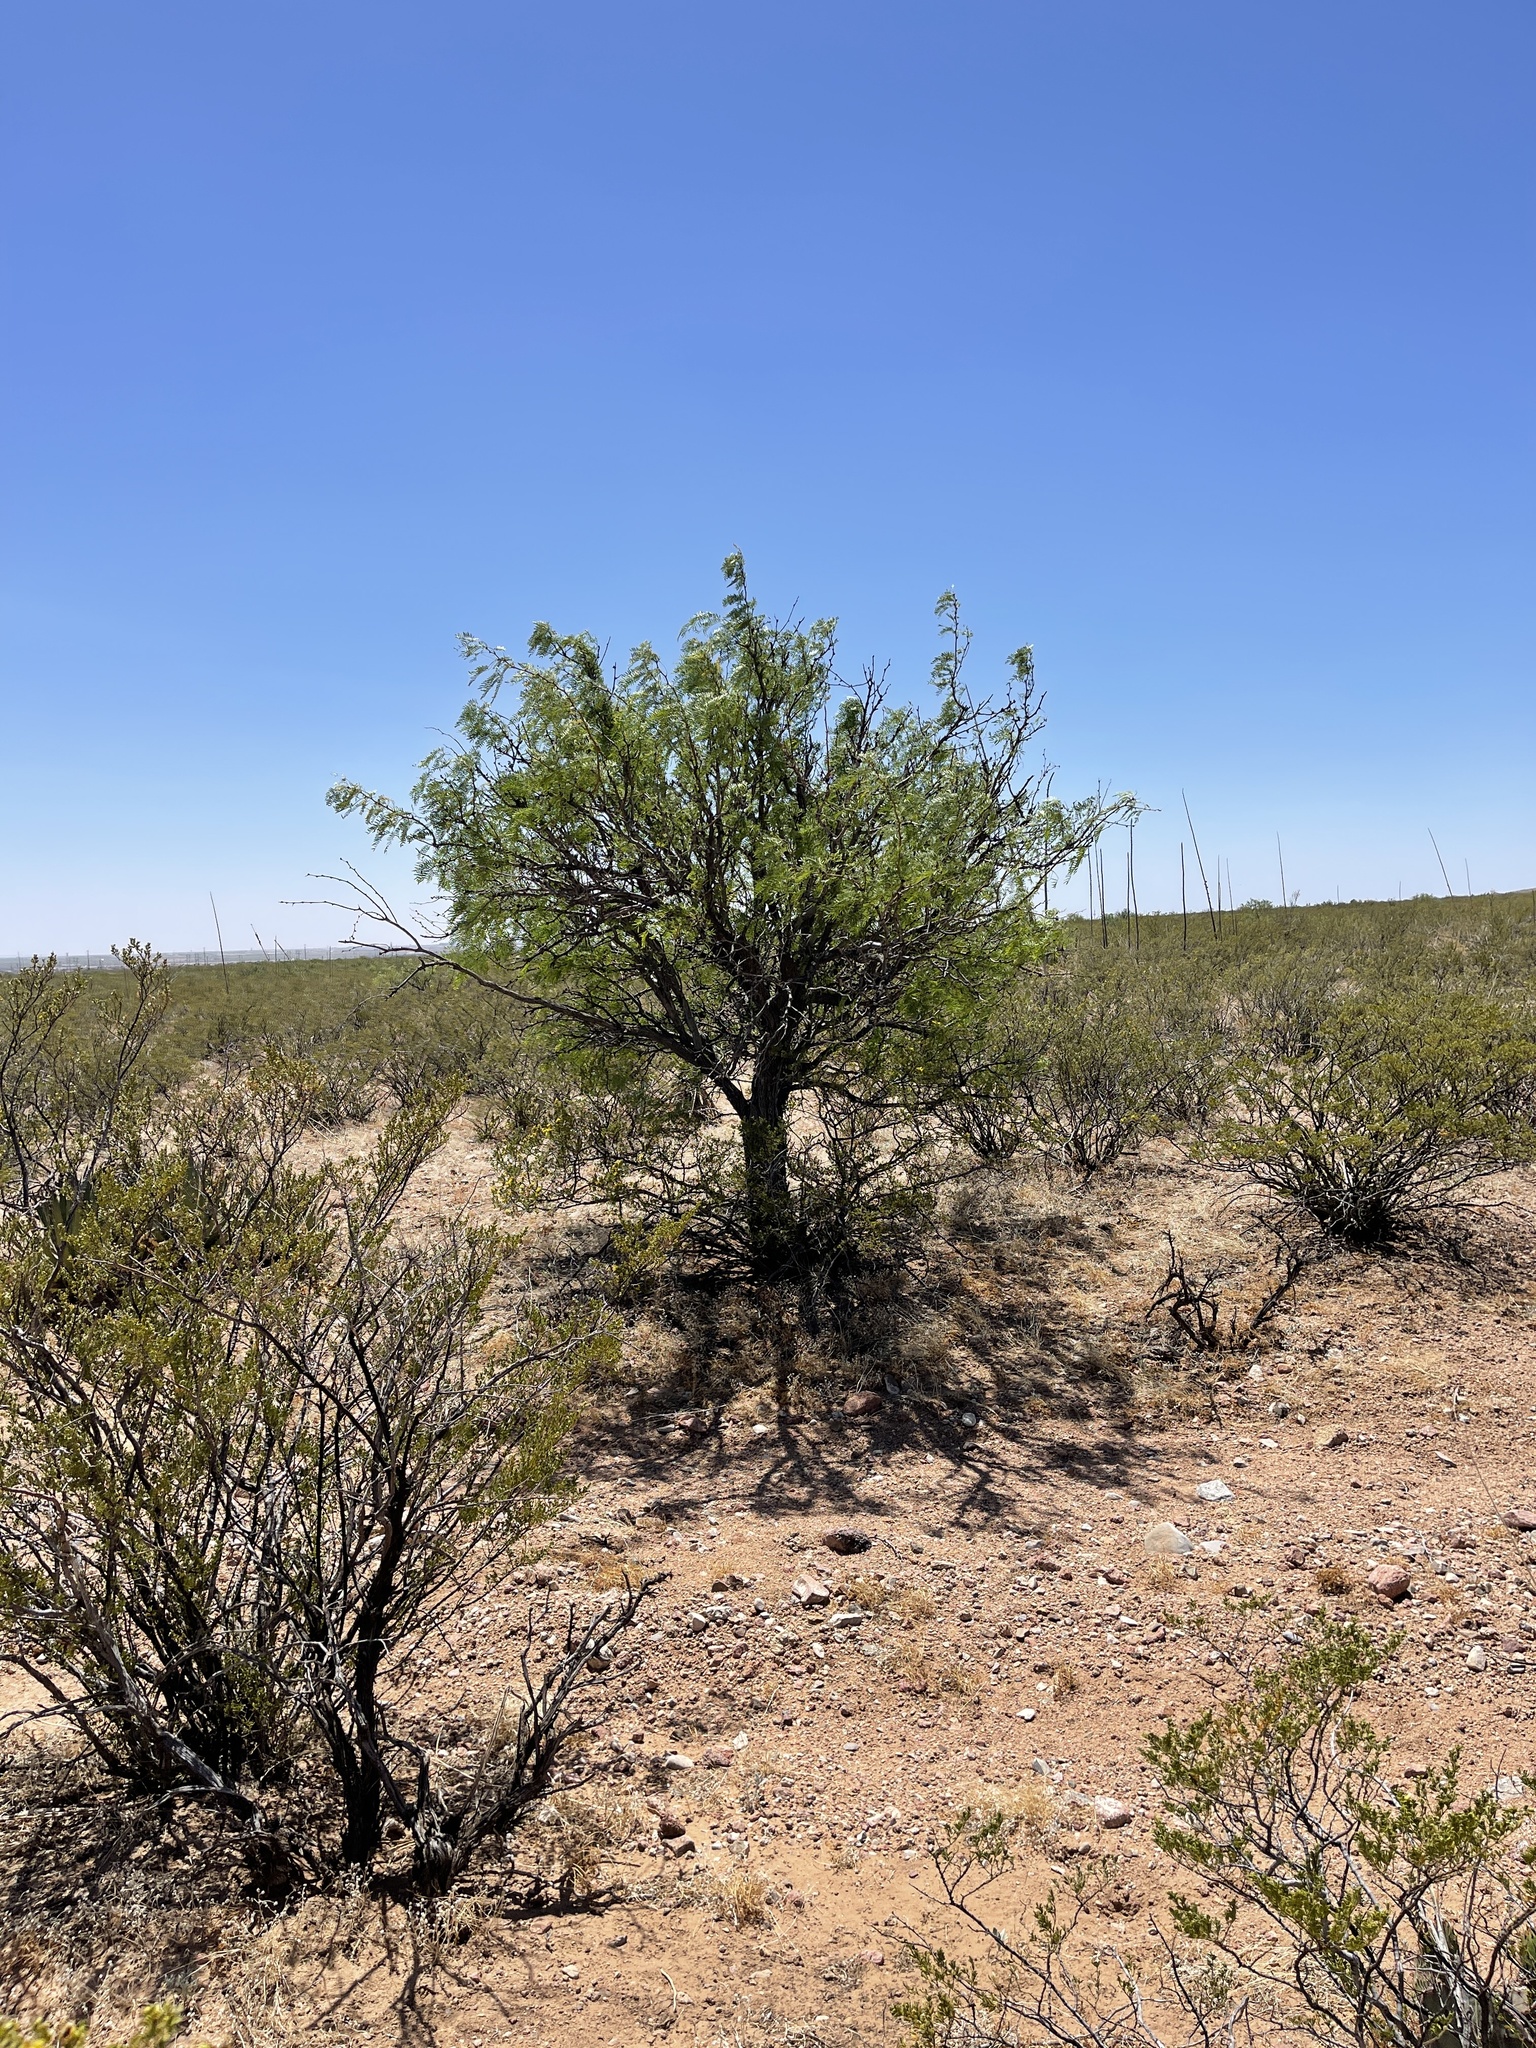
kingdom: Plantae
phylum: Tracheophyta
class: Magnoliopsida
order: Fabales
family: Fabaceae
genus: Prosopis
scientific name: Prosopis glandulosa
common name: Honey mesquite
